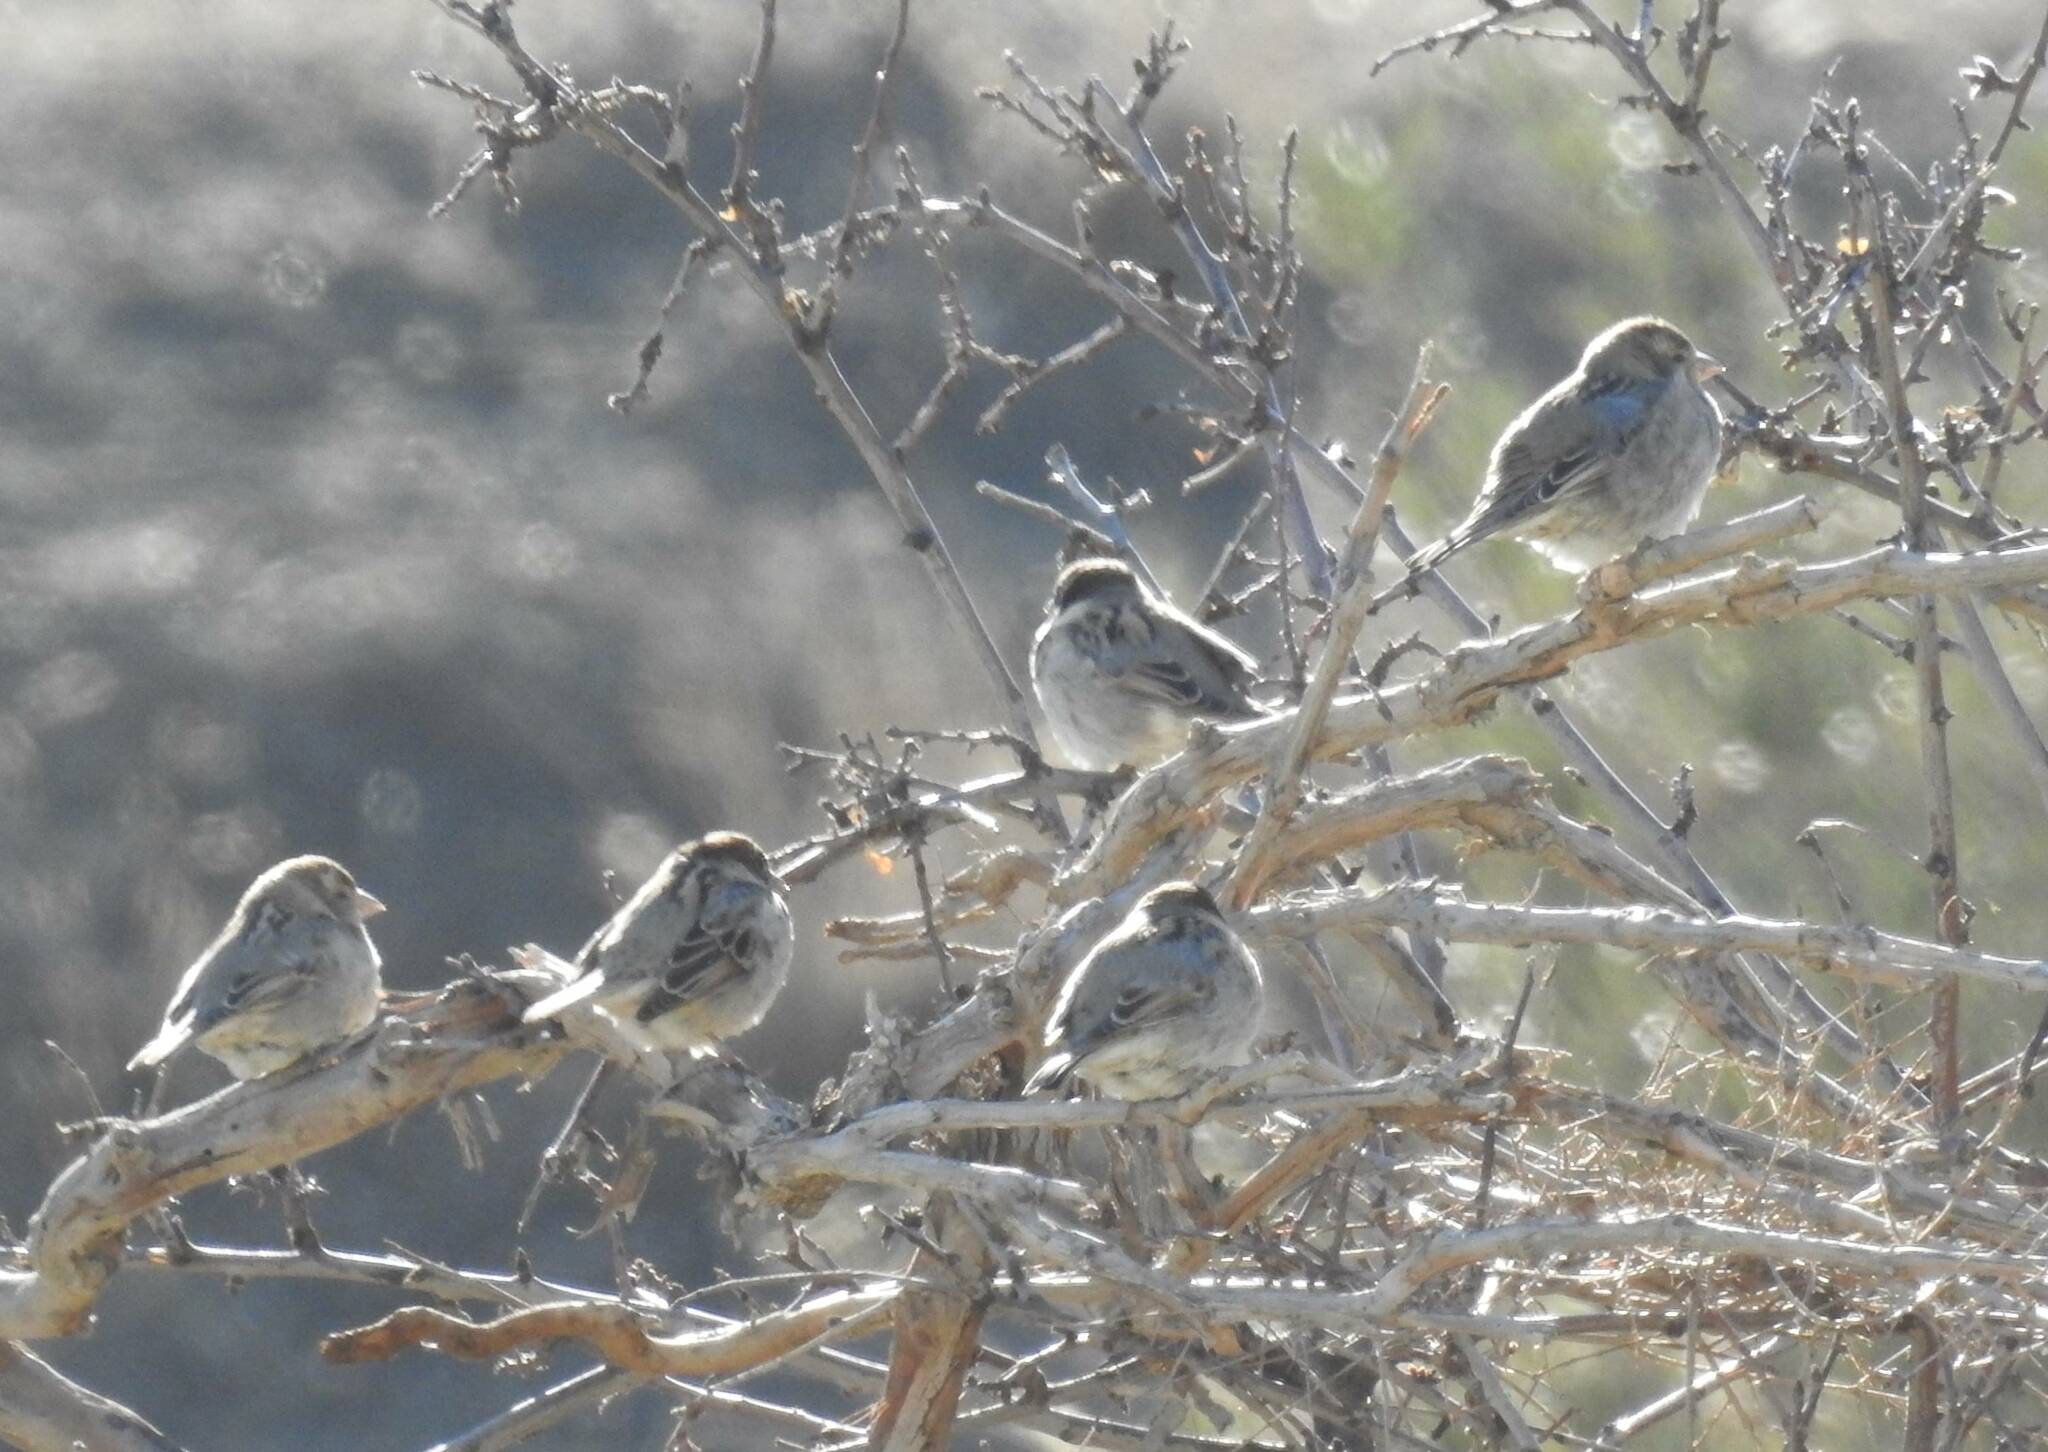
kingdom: Animalia
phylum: Chordata
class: Aves
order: Passeriformes
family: Passeridae
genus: Passer
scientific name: Passer hispaniolensis
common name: Spanish sparrow
